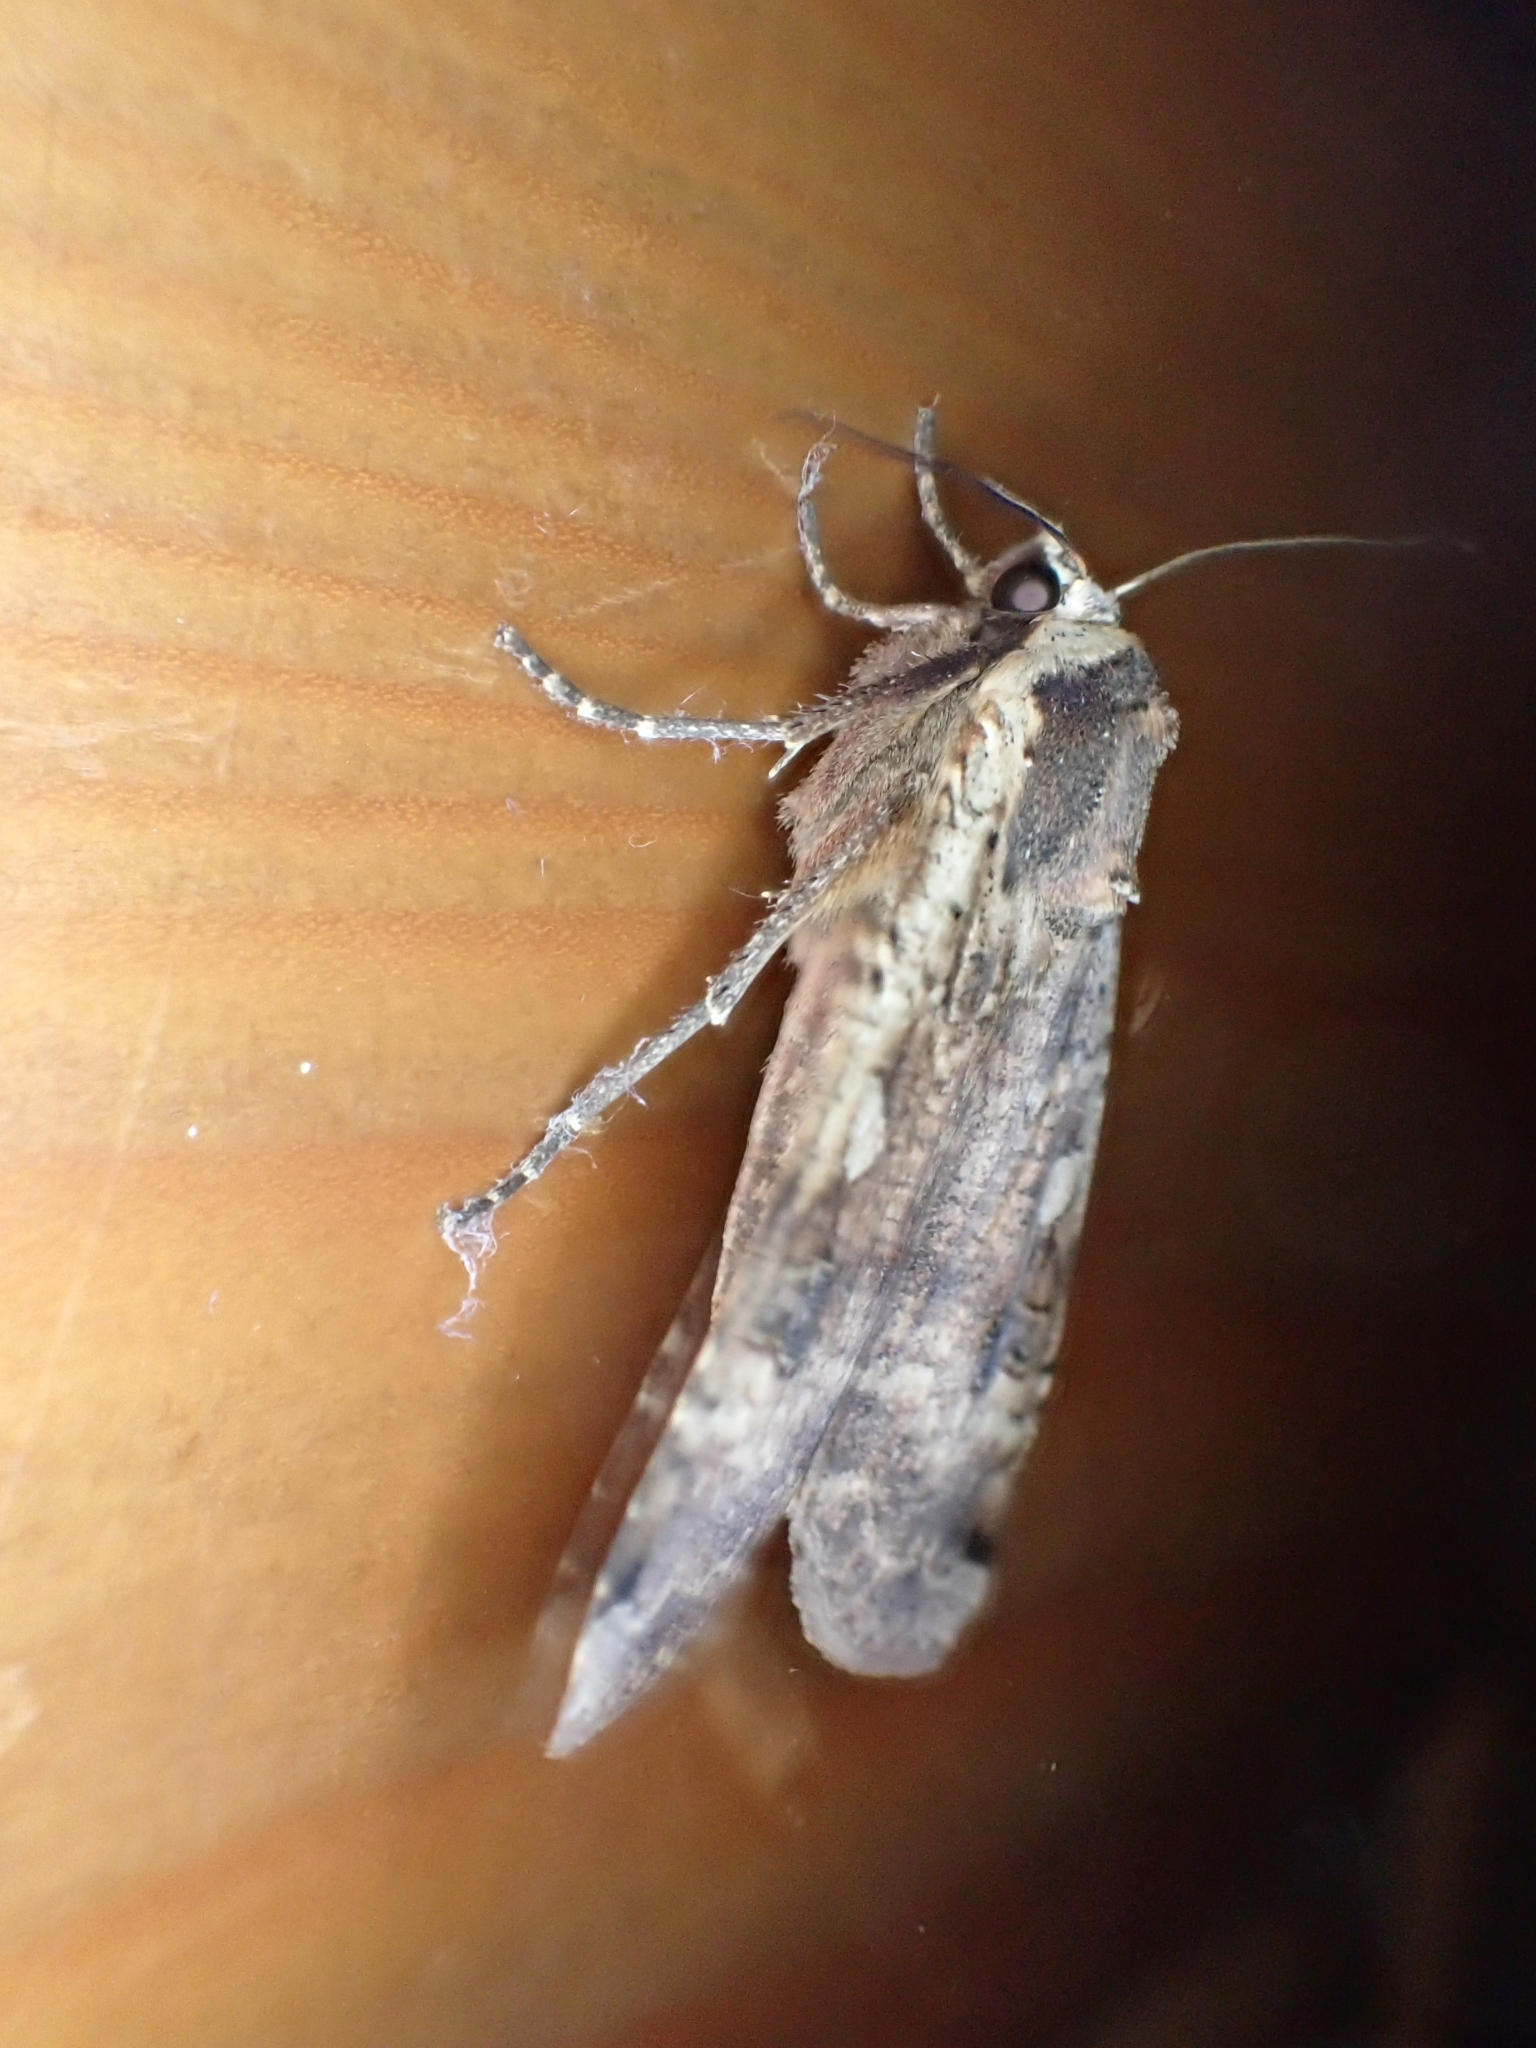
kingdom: Animalia
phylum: Arthropoda
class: Insecta
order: Lepidoptera
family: Noctuidae
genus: Noctua
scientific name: Noctua pronuba
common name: Large yellow underwing
